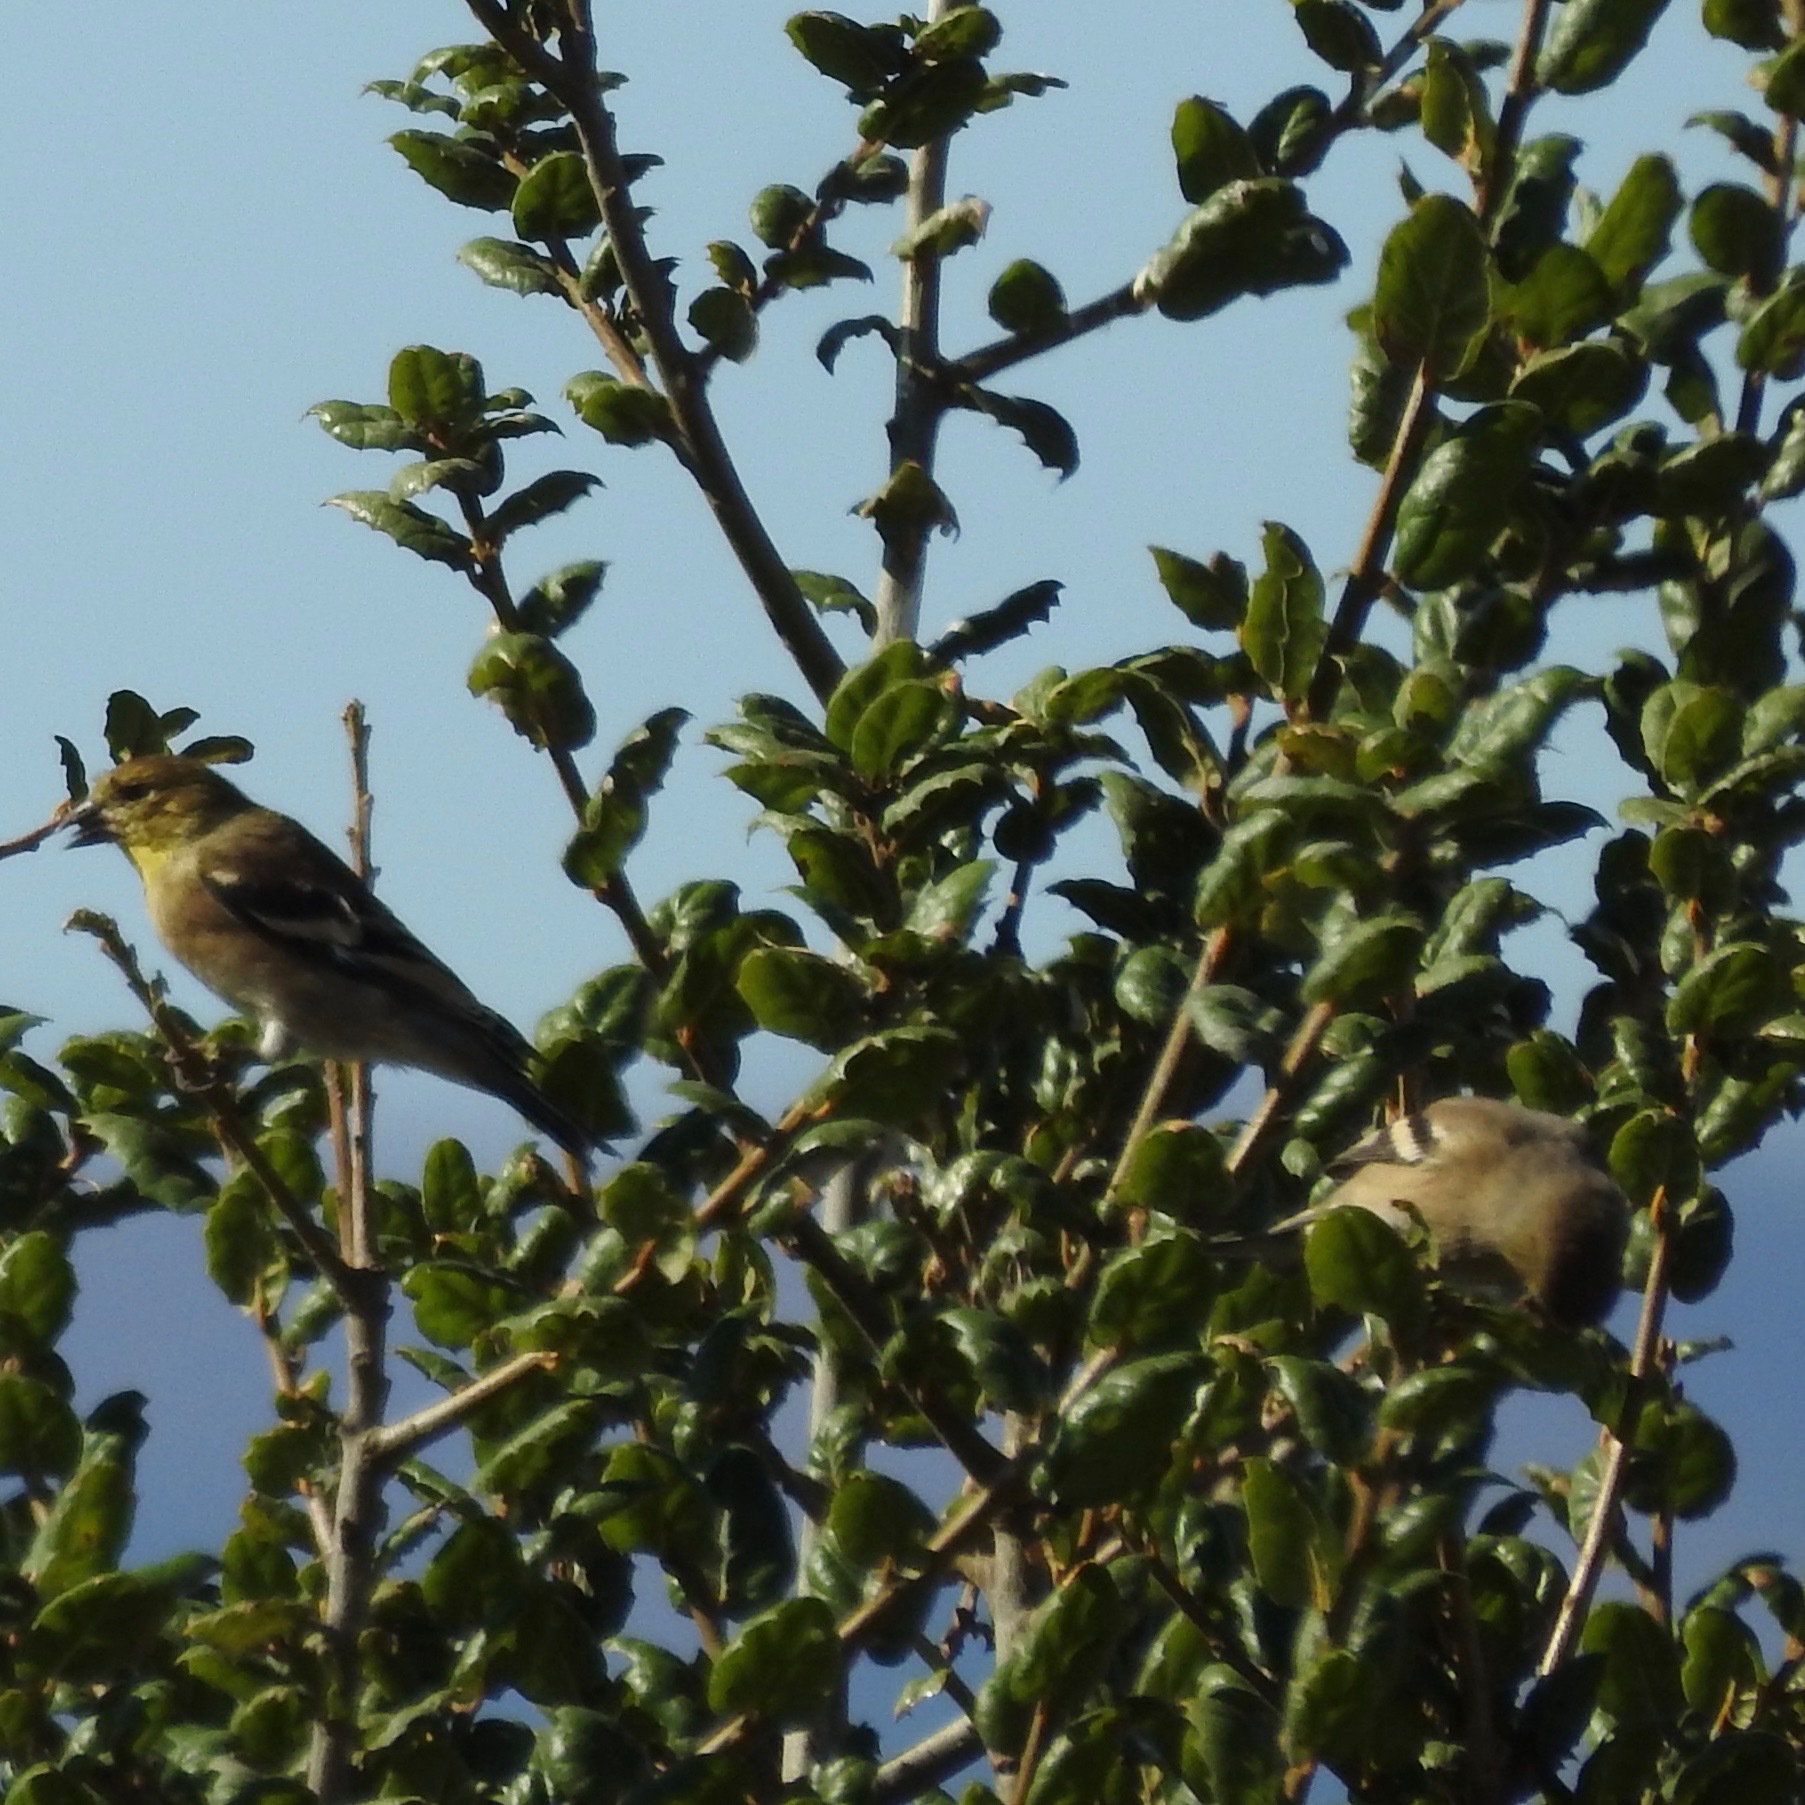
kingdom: Animalia
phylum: Chordata
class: Aves
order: Passeriformes
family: Fringillidae
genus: Spinus
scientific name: Spinus psaltria
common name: Lesser goldfinch
